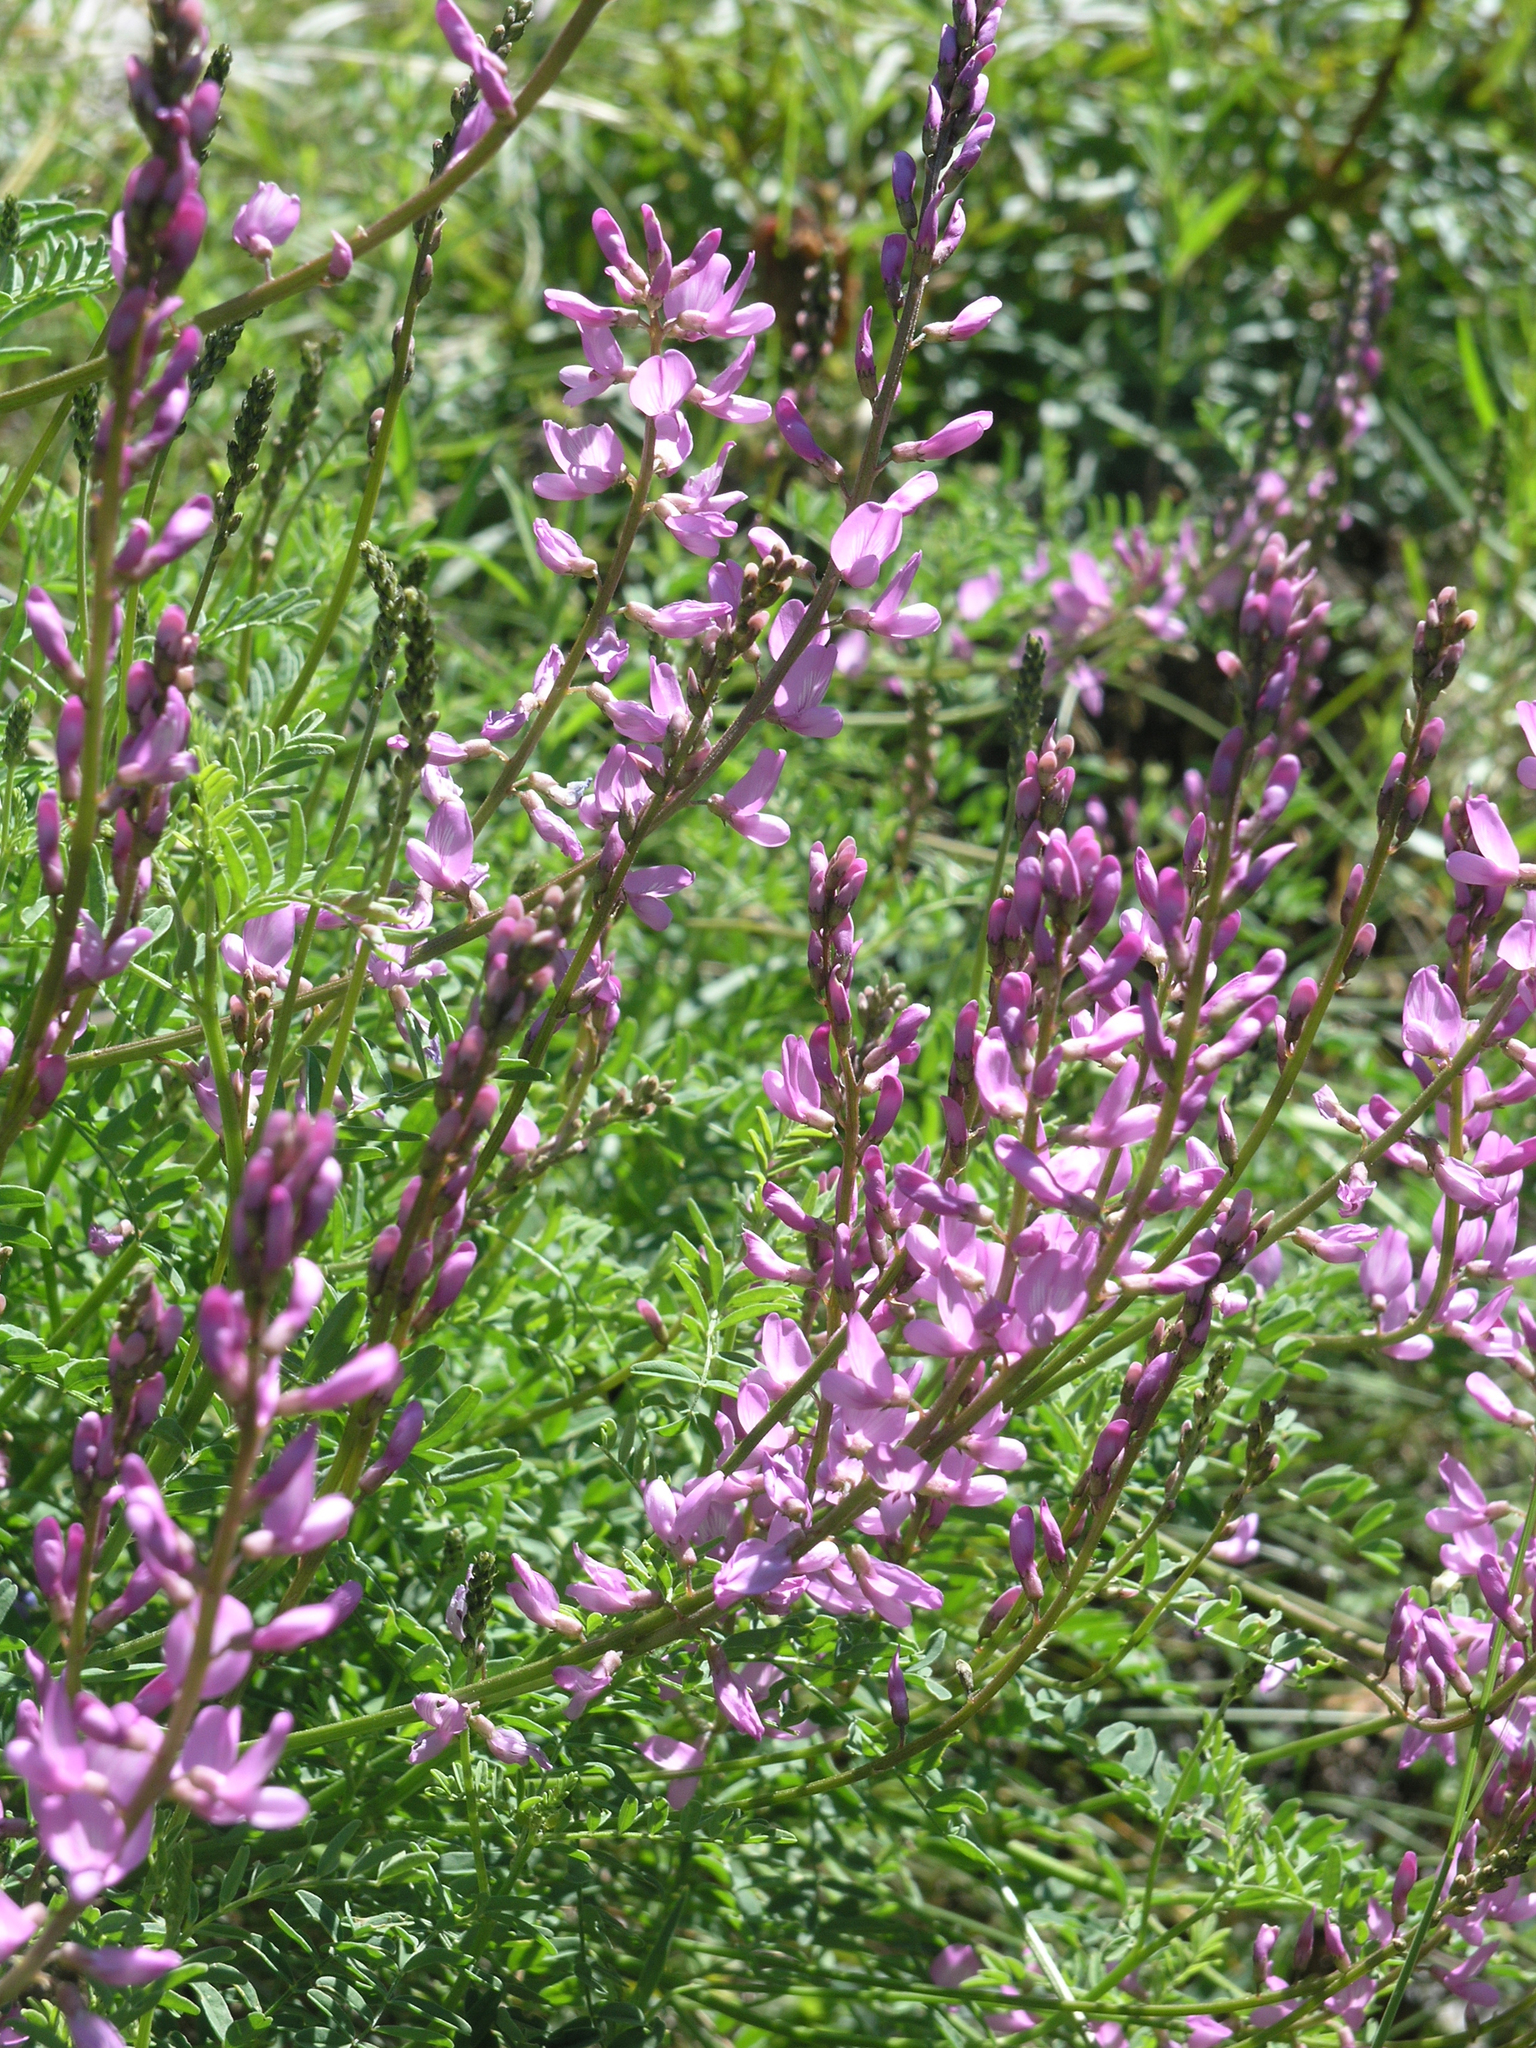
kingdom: Plantae
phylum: Tracheophyta
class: Magnoliopsida
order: Fabales
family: Fabaceae
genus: Astragalus
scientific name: Astragalus leptostachys
